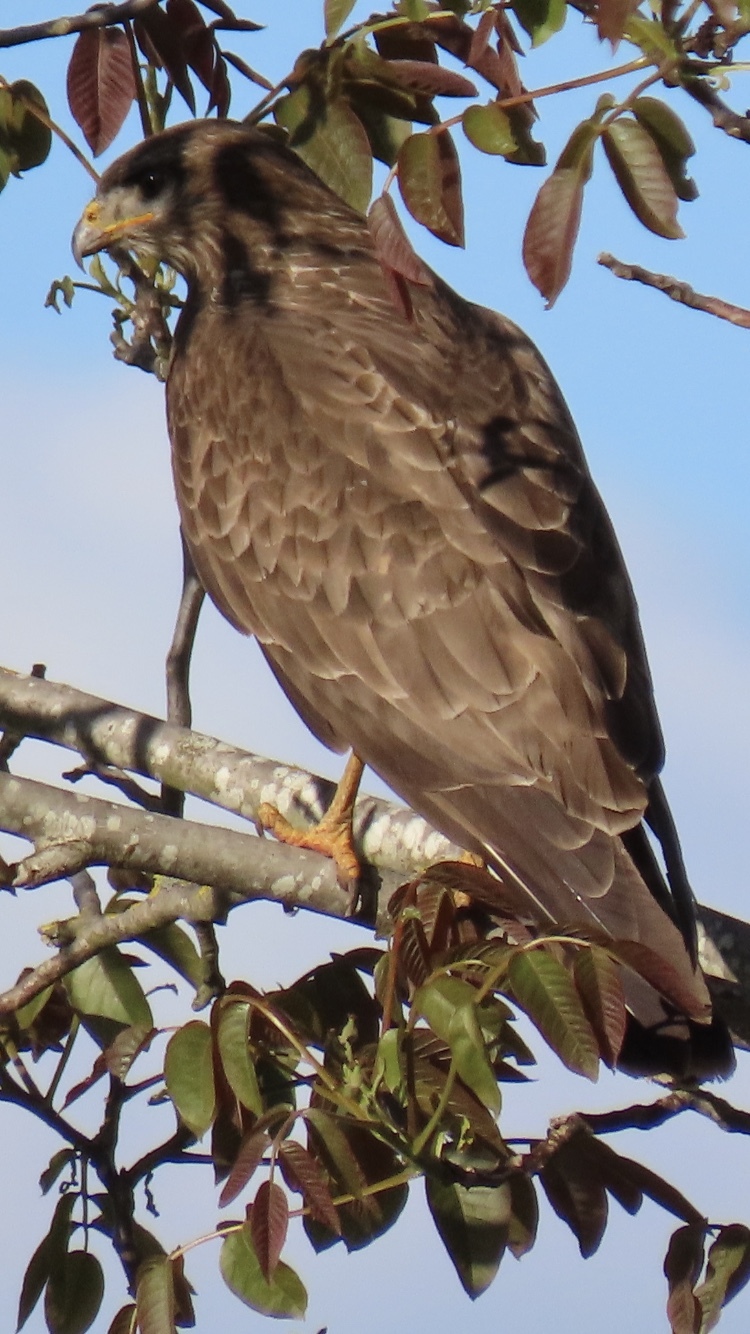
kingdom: Animalia
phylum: Chordata
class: Aves
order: Accipitriformes
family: Accipitridae
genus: Milvus
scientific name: Milvus migrans
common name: Black kite
